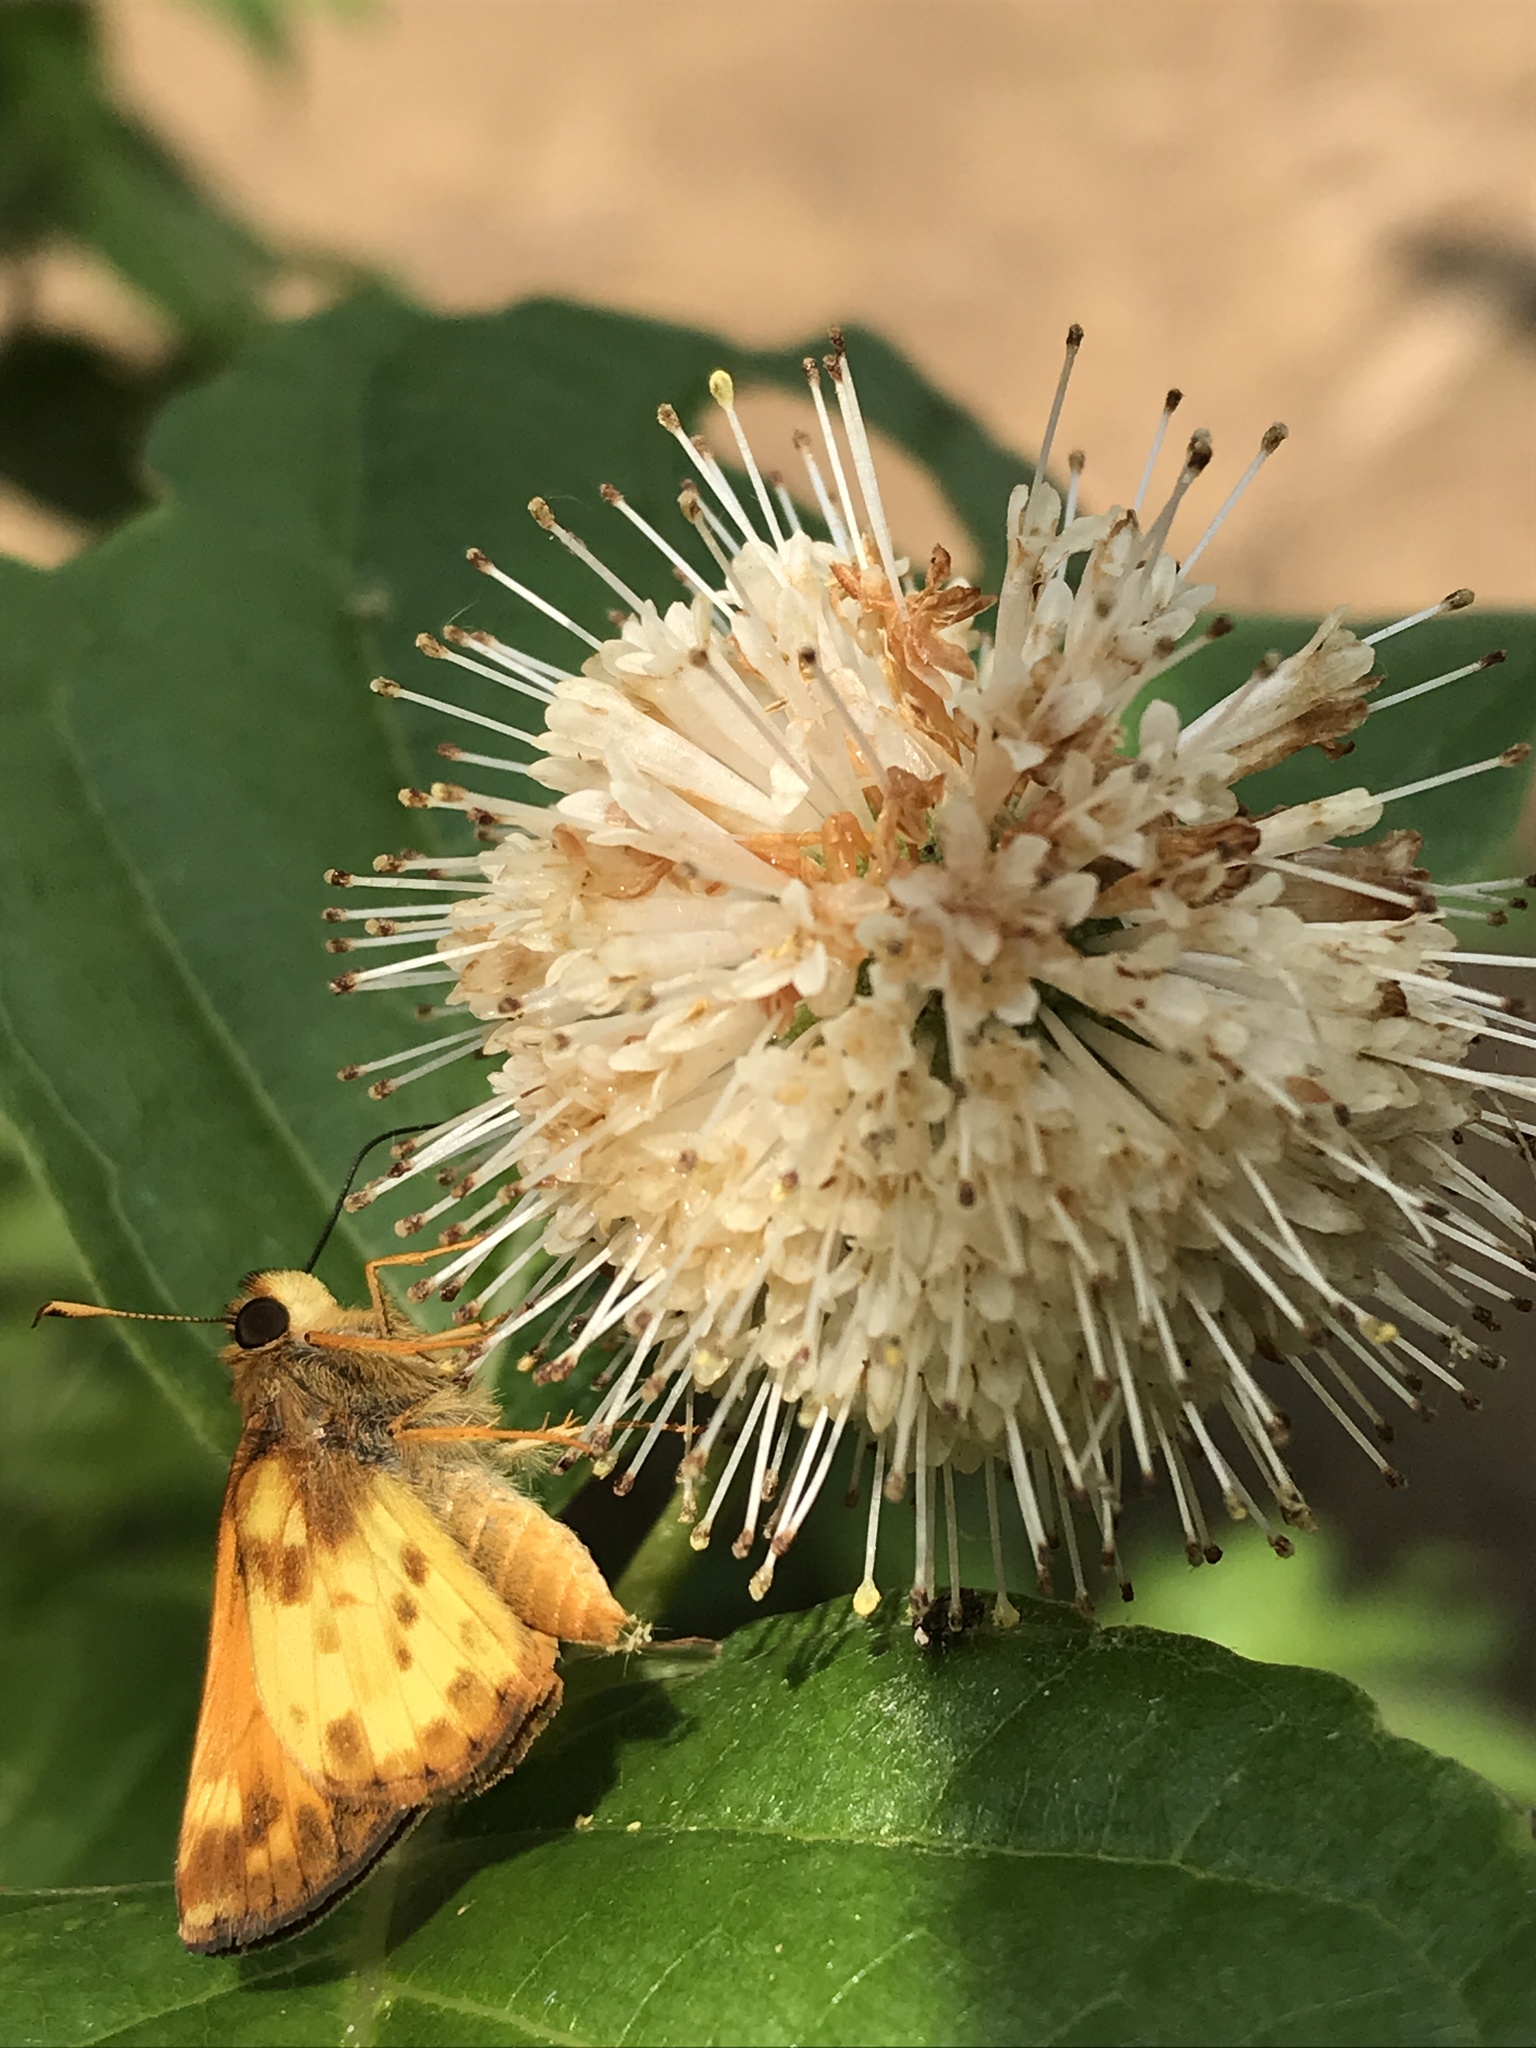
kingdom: Animalia
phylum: Arthropoda
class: Insecta
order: Lepidoptera
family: Hesperiidae
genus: Lon
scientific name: Lon zabulon
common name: Zabulon skipper
